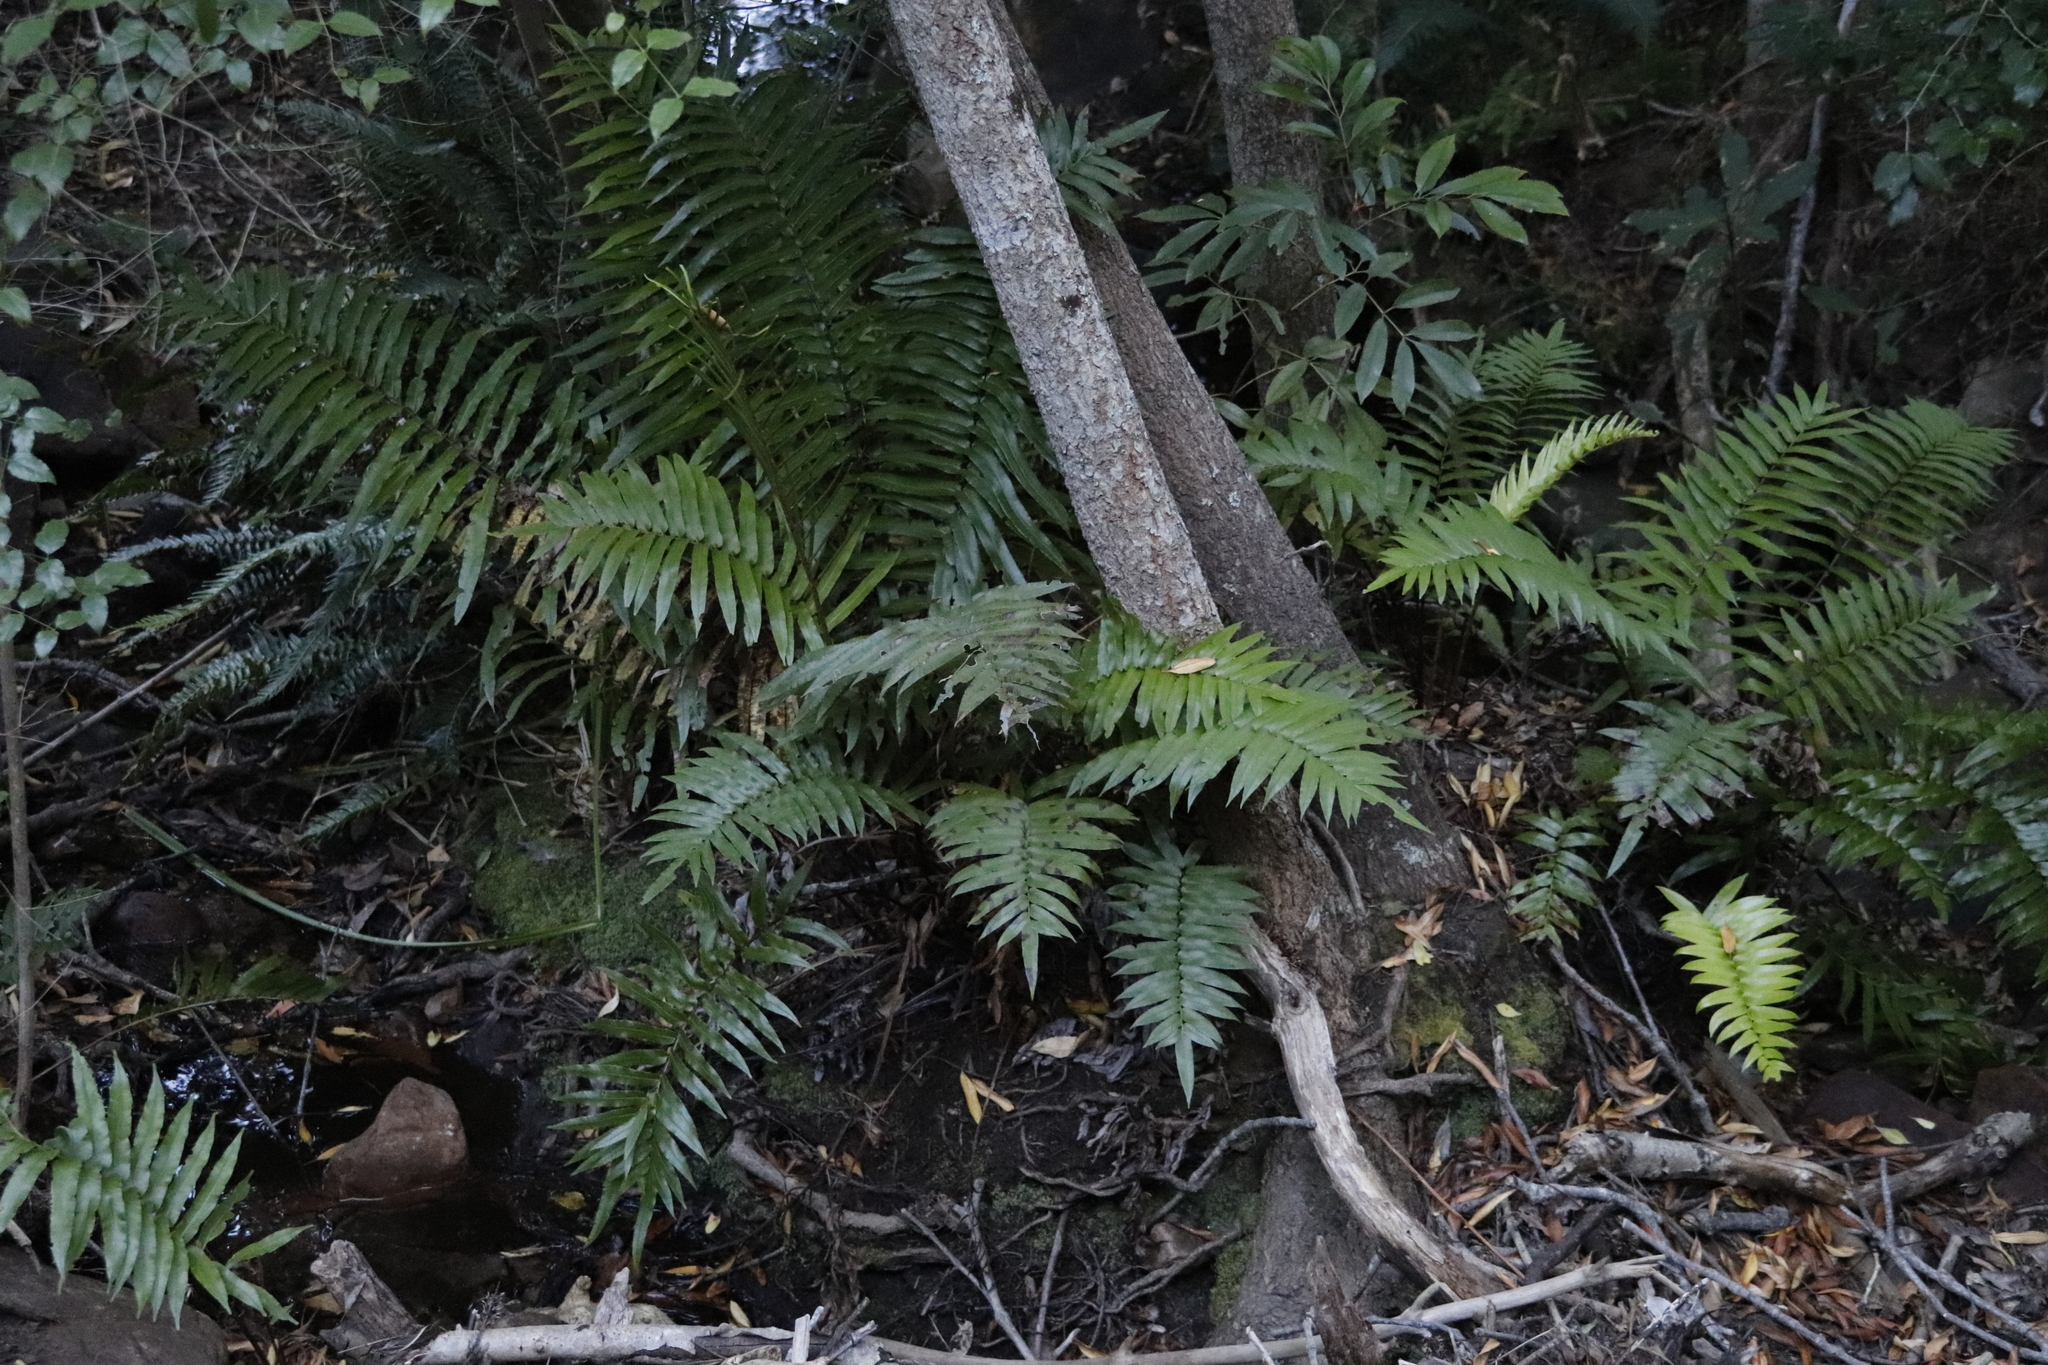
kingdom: Plantae
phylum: Tracheophyta
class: Polypodiopsida
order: Polypodiales
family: Blechnaceae
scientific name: Blechnaceae
